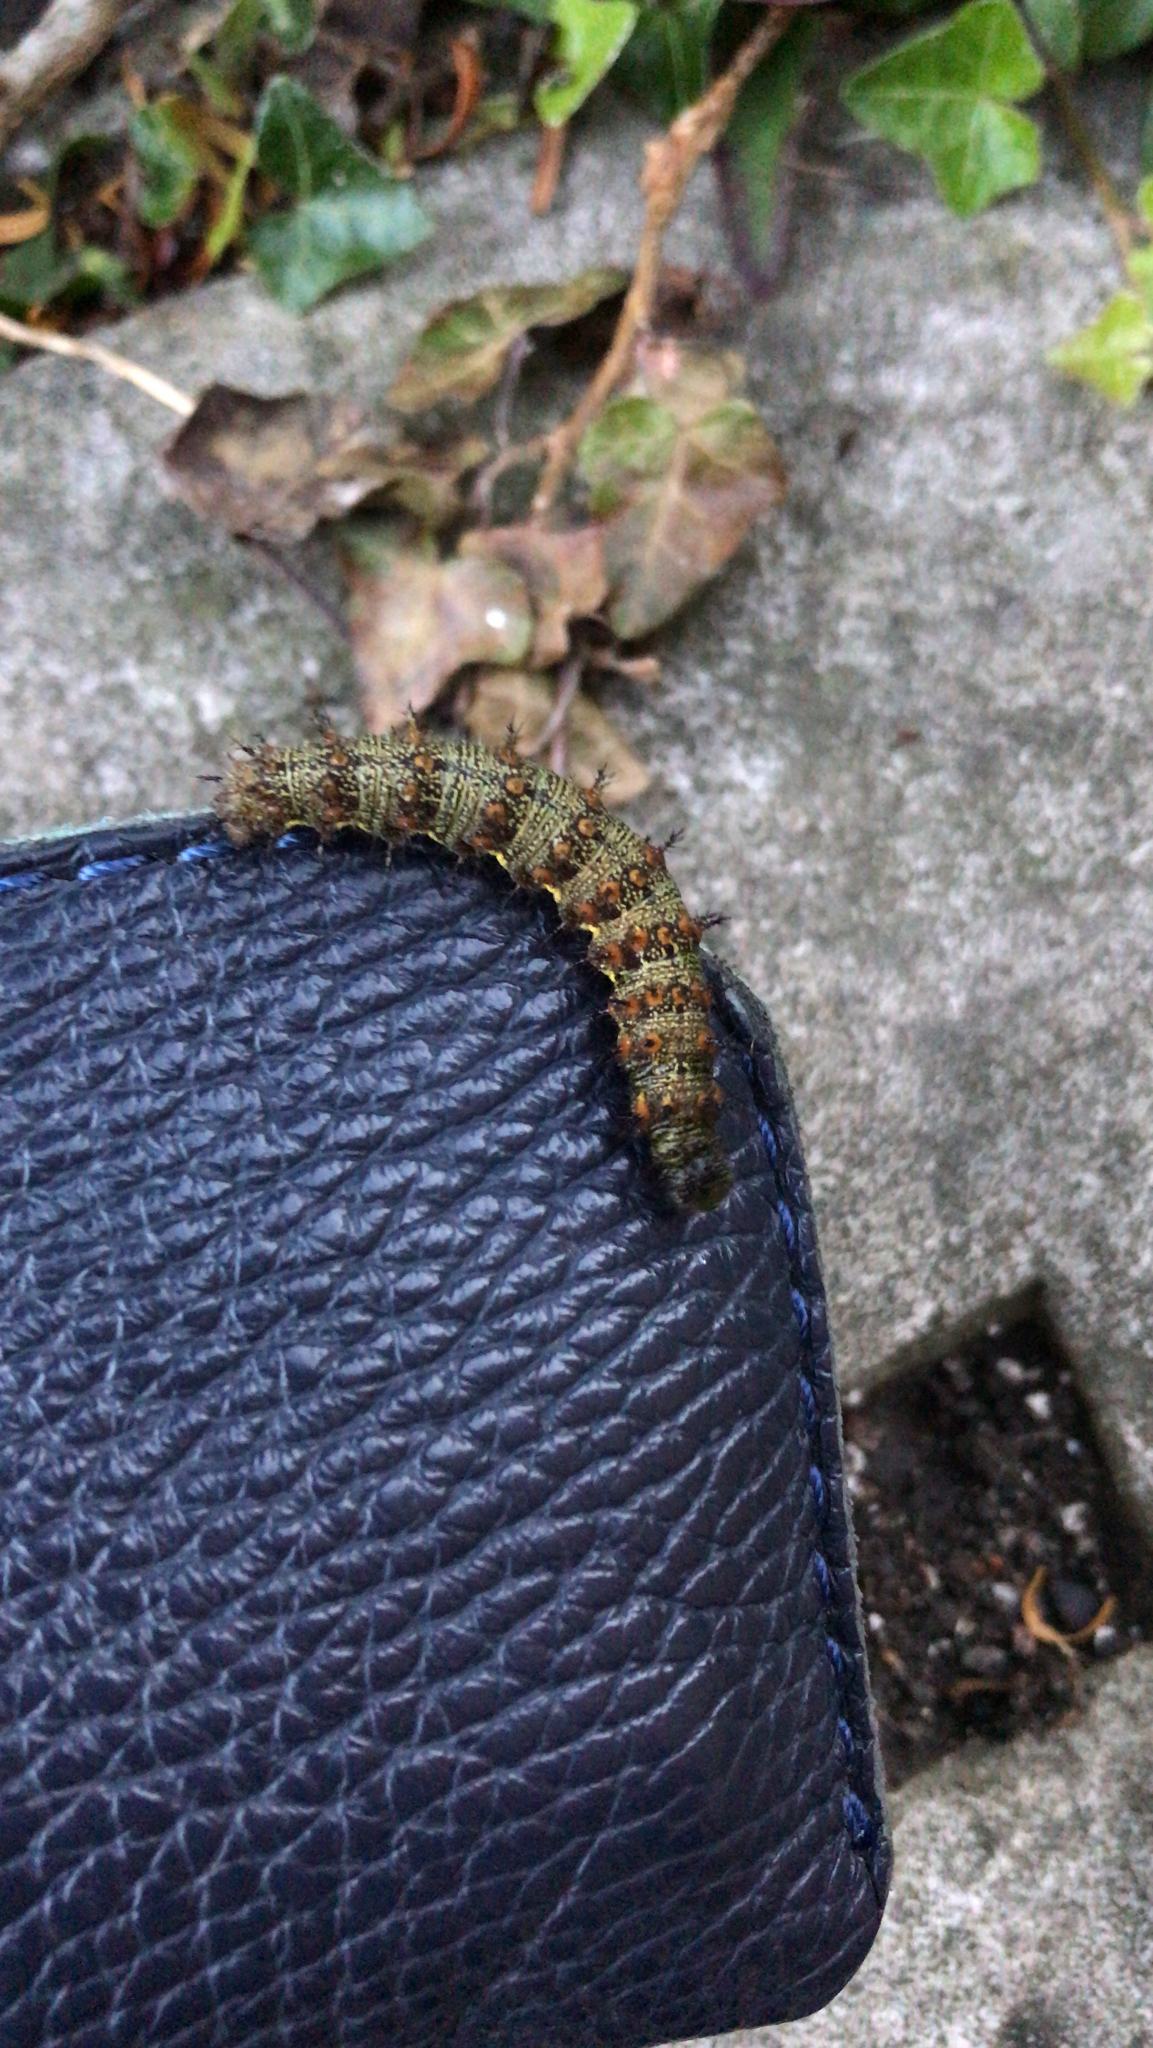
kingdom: Animalia
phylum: Arthropoda
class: Insecta
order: Lepidoptera
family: Nymphalidae
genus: Vanessa
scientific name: Vanessa atalanta
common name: Red admiral
